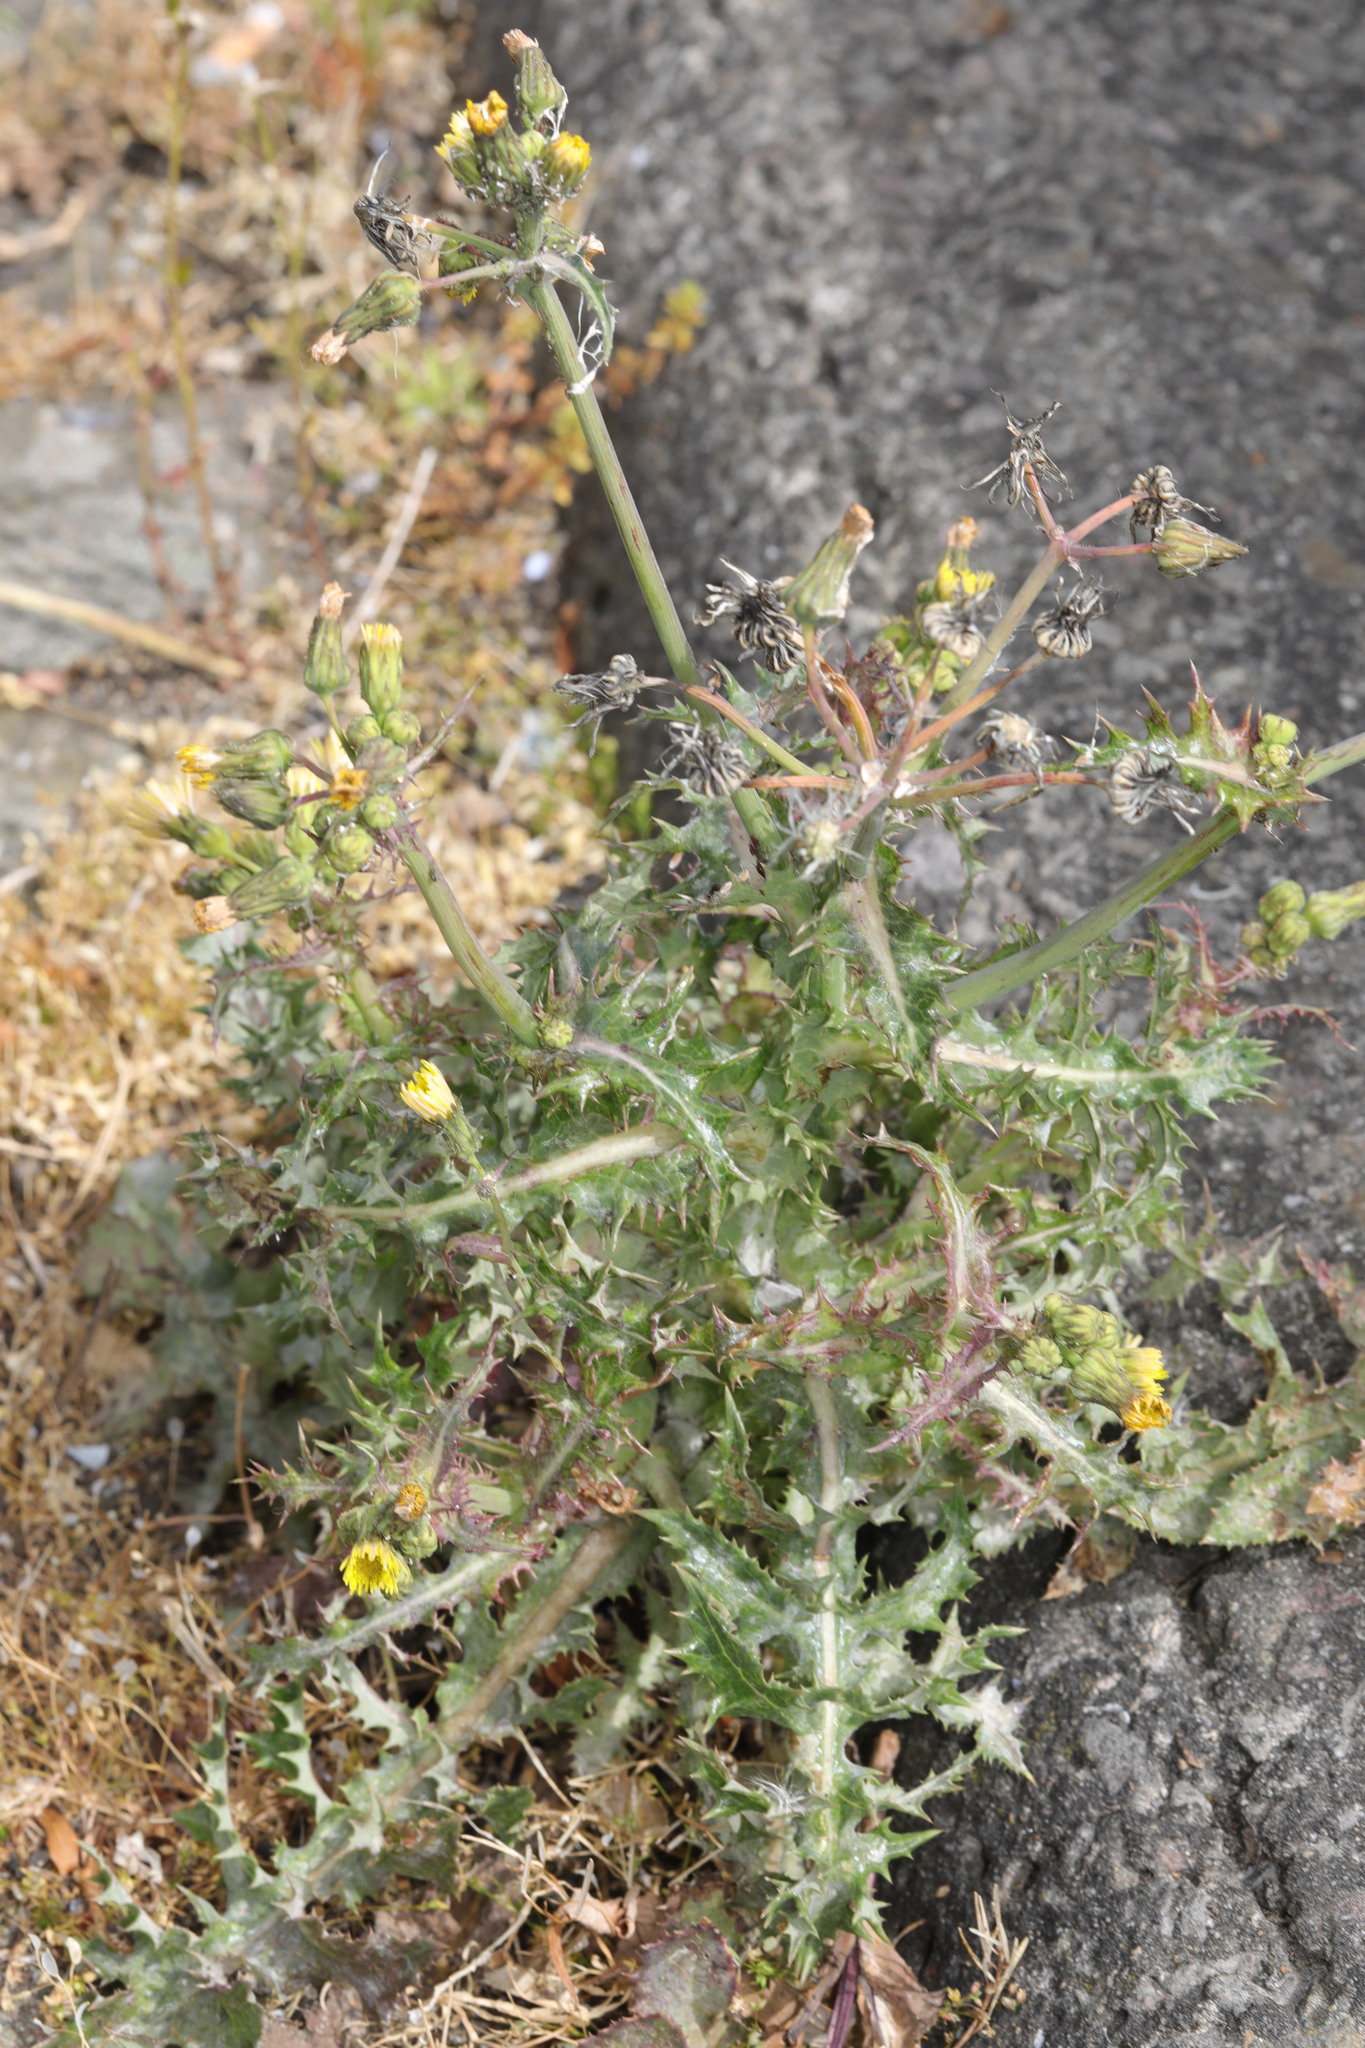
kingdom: Plantae
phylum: Tracheophyta
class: Magnoliopsida
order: Asterales
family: Asteraceae
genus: Sonchus
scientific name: Sonchus asper
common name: Prickly sow-thistle
